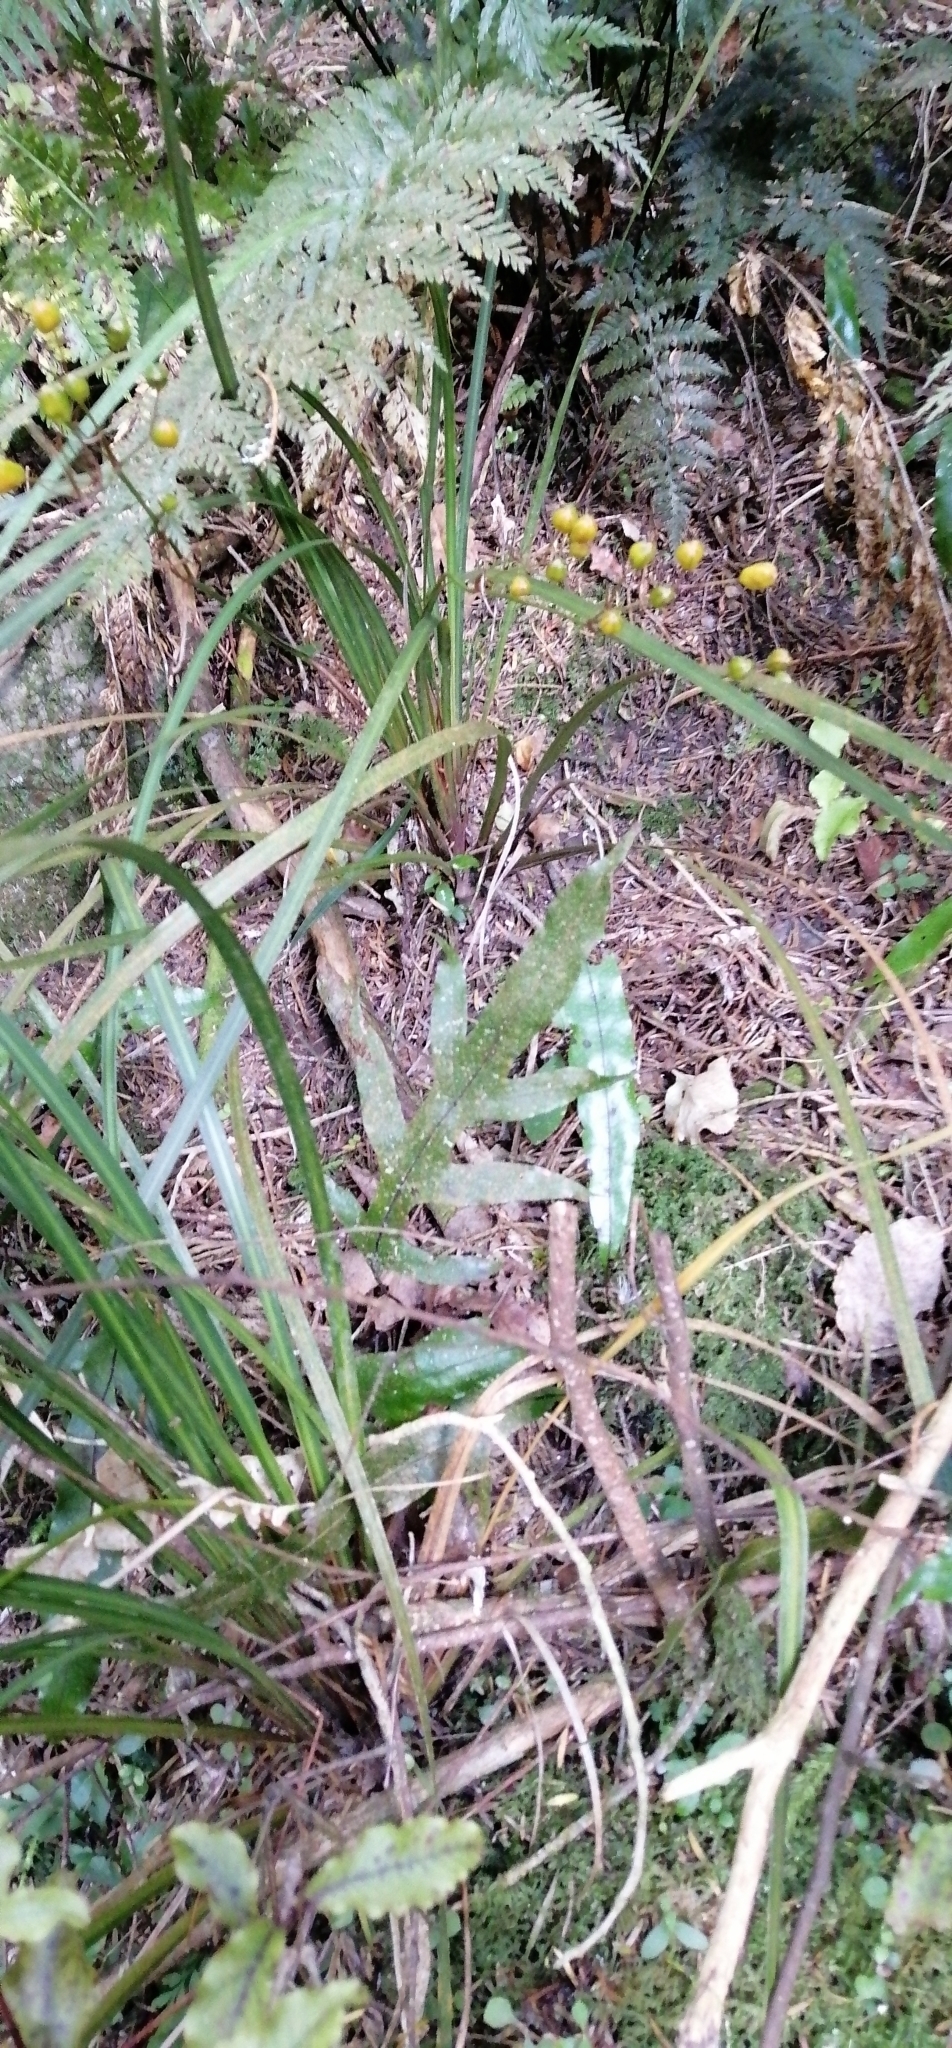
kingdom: Plantae
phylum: Tracheophyta
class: Magnoliopsida
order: Gentianales
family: Rubiaceae
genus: Coprosma
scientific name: Coprosma areolata
